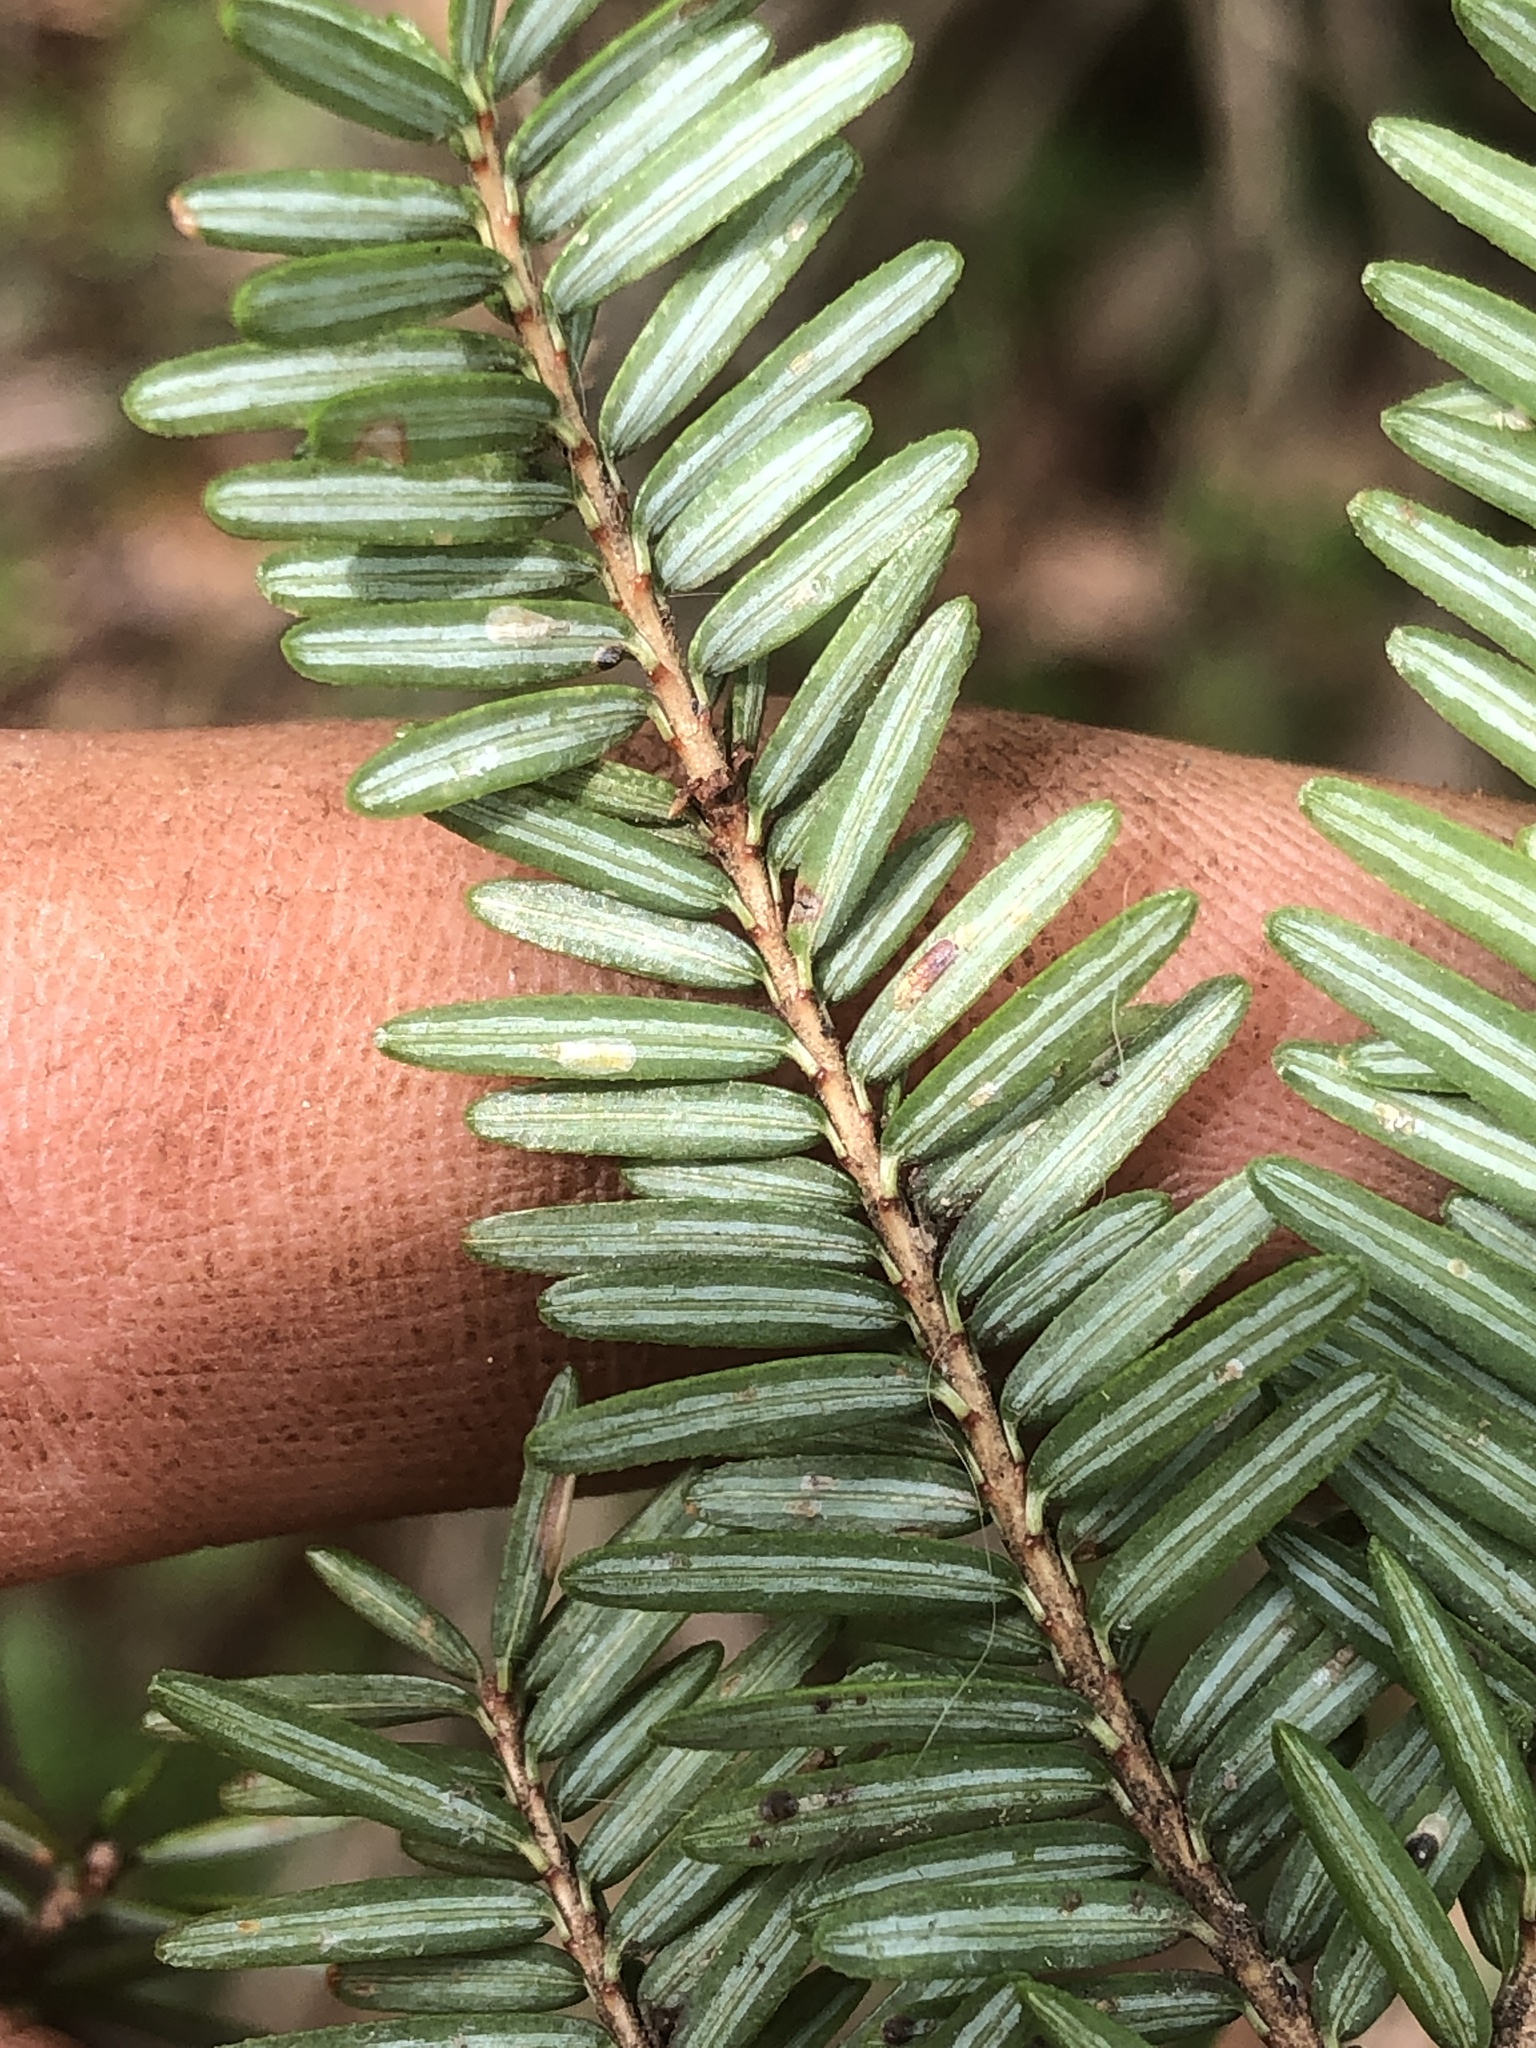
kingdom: Animalia
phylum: Arthropoda
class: Insecta
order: Hemiptera
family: Diaspididae
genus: Fiorinia
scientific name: Fiorinia externa
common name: Elongate hemlock scale
